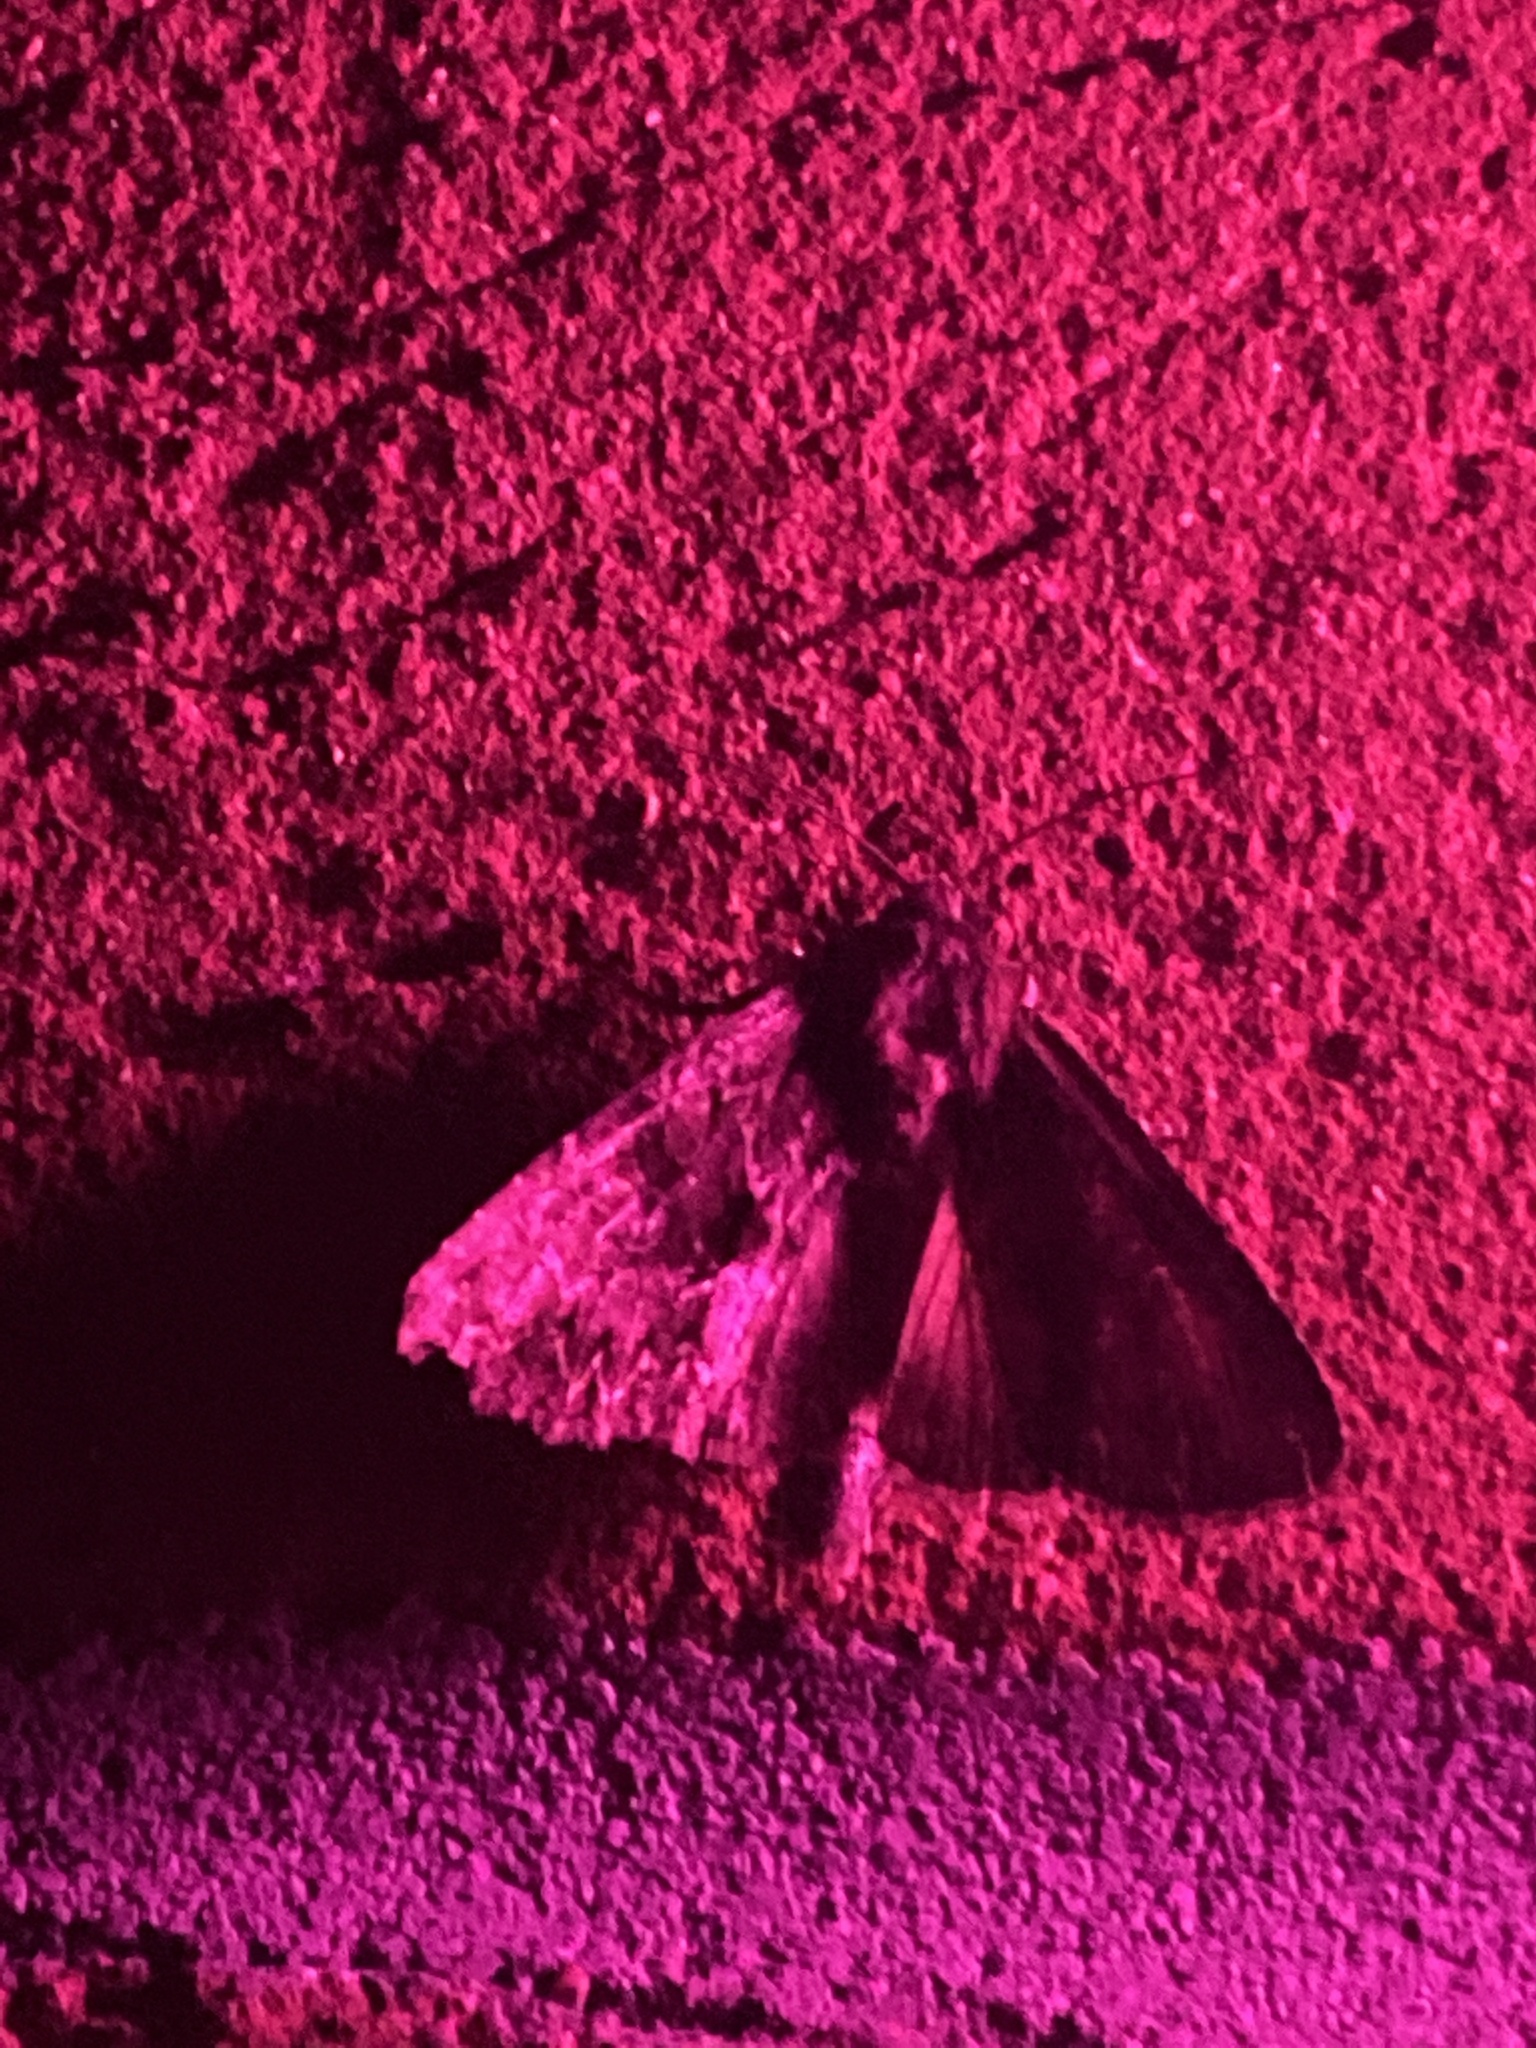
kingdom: Animalia
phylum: Arthropoda
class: Insecta
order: Lepidoptera
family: Noctuidae
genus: Apamea
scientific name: Apamea monoglypha
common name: Dark arches
